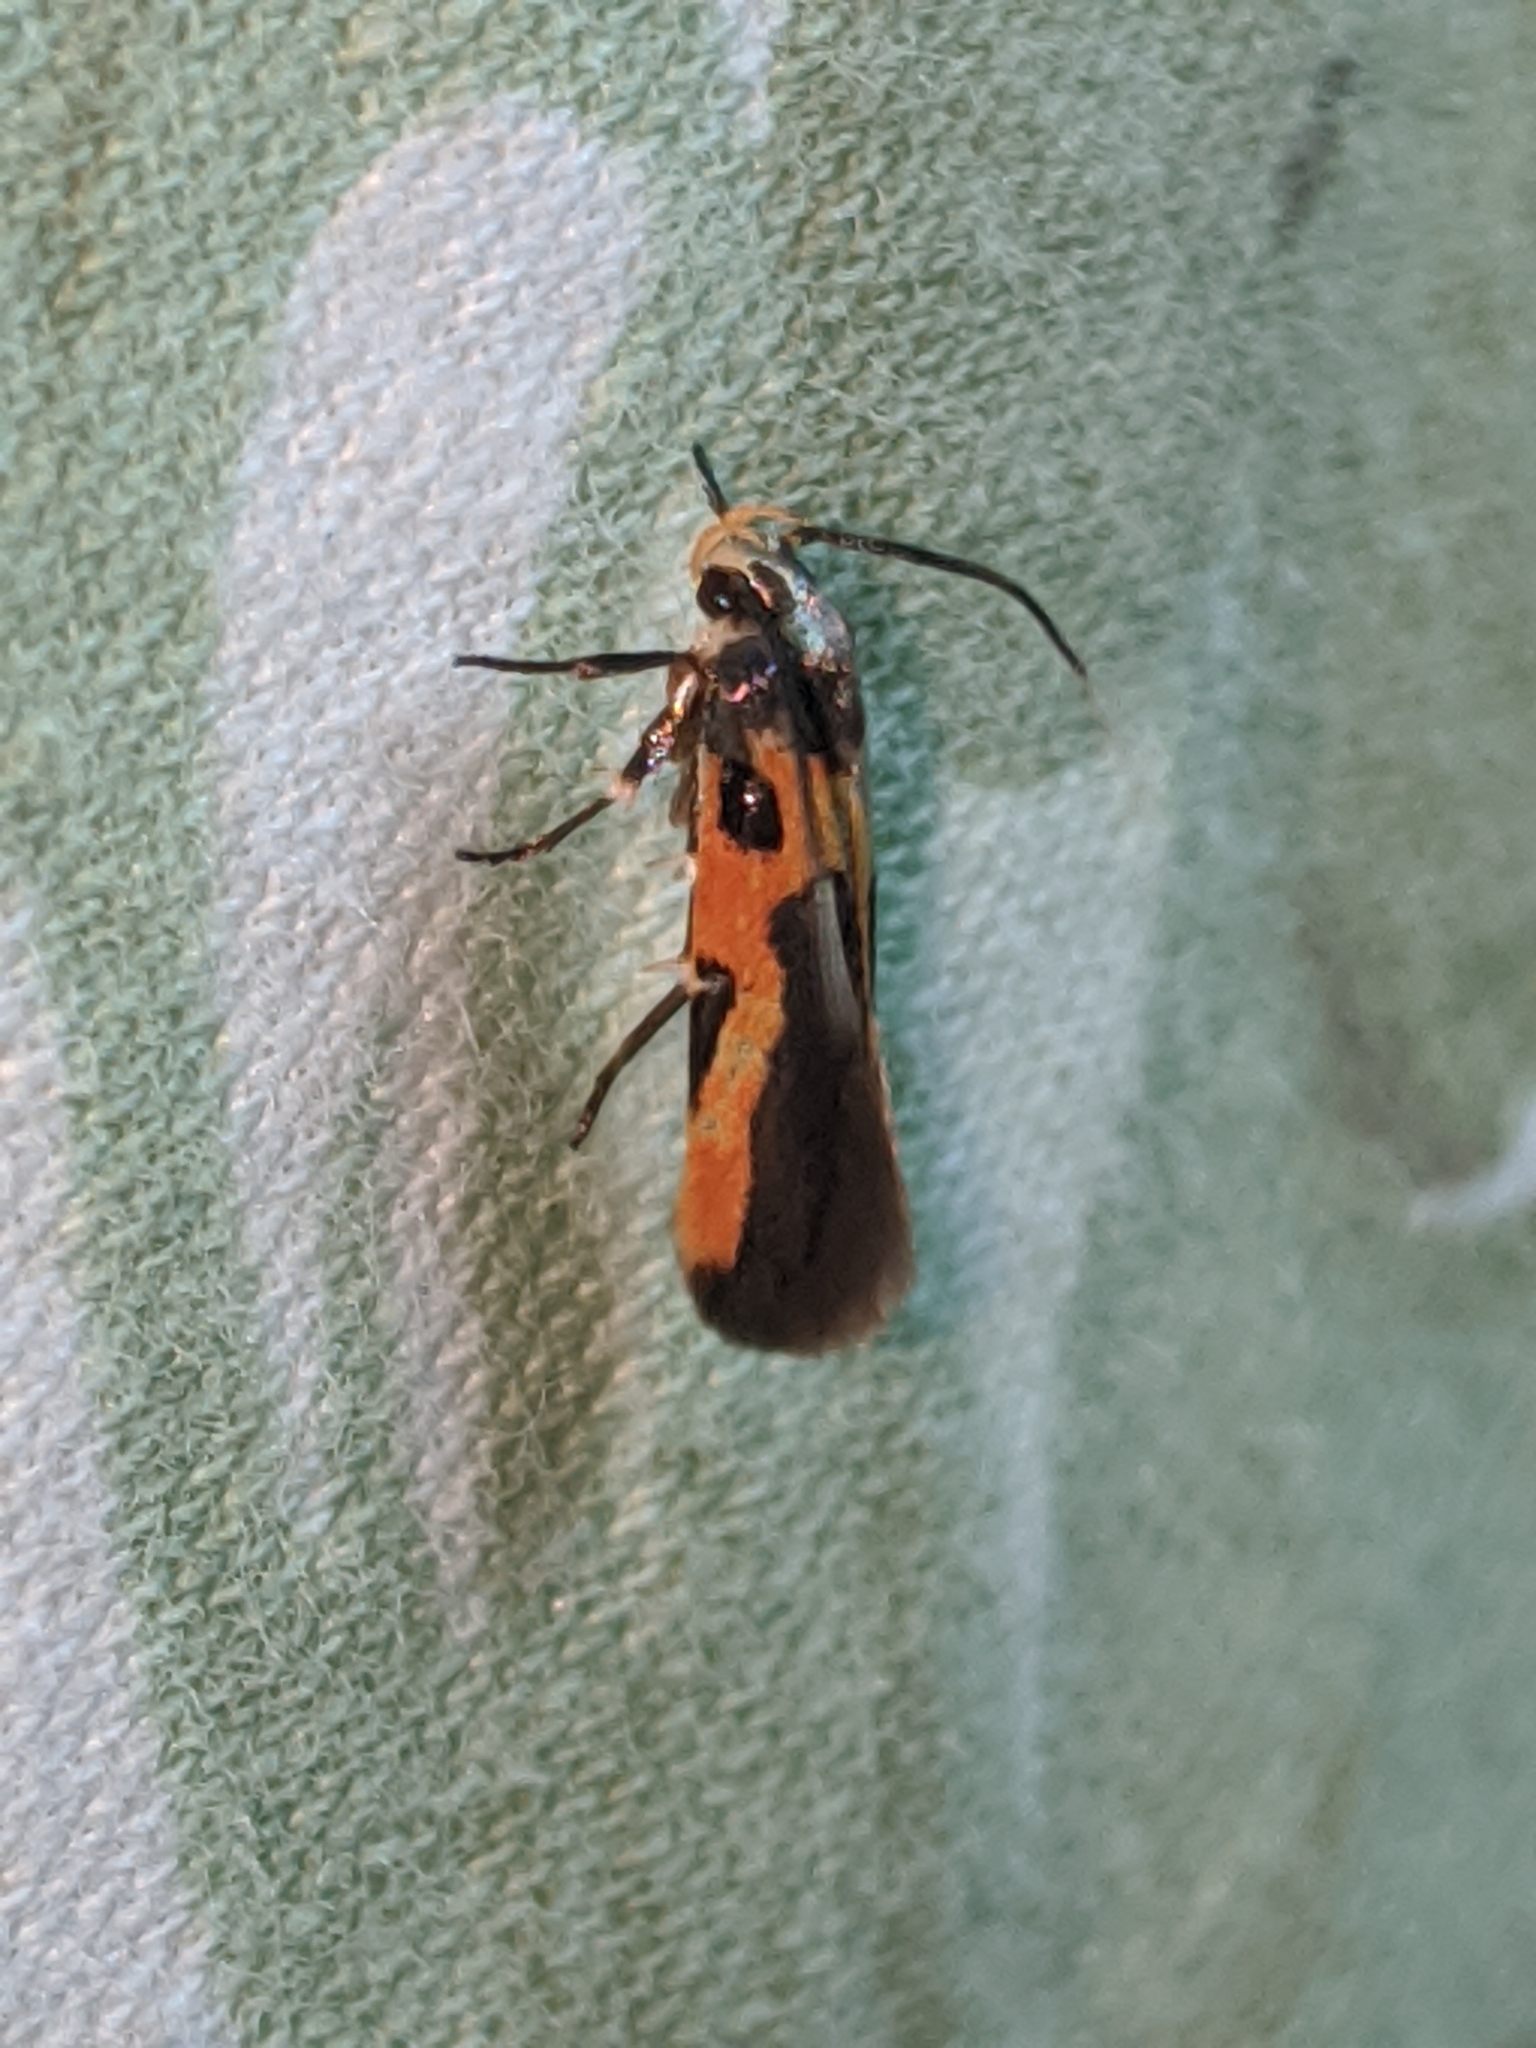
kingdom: Animalia
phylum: Arthropoda
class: Insecta
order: Lepidoptera
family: Cosmopterigidae
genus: Euclemensia
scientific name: Euclemensia bassettella
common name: Kermes scale moth
